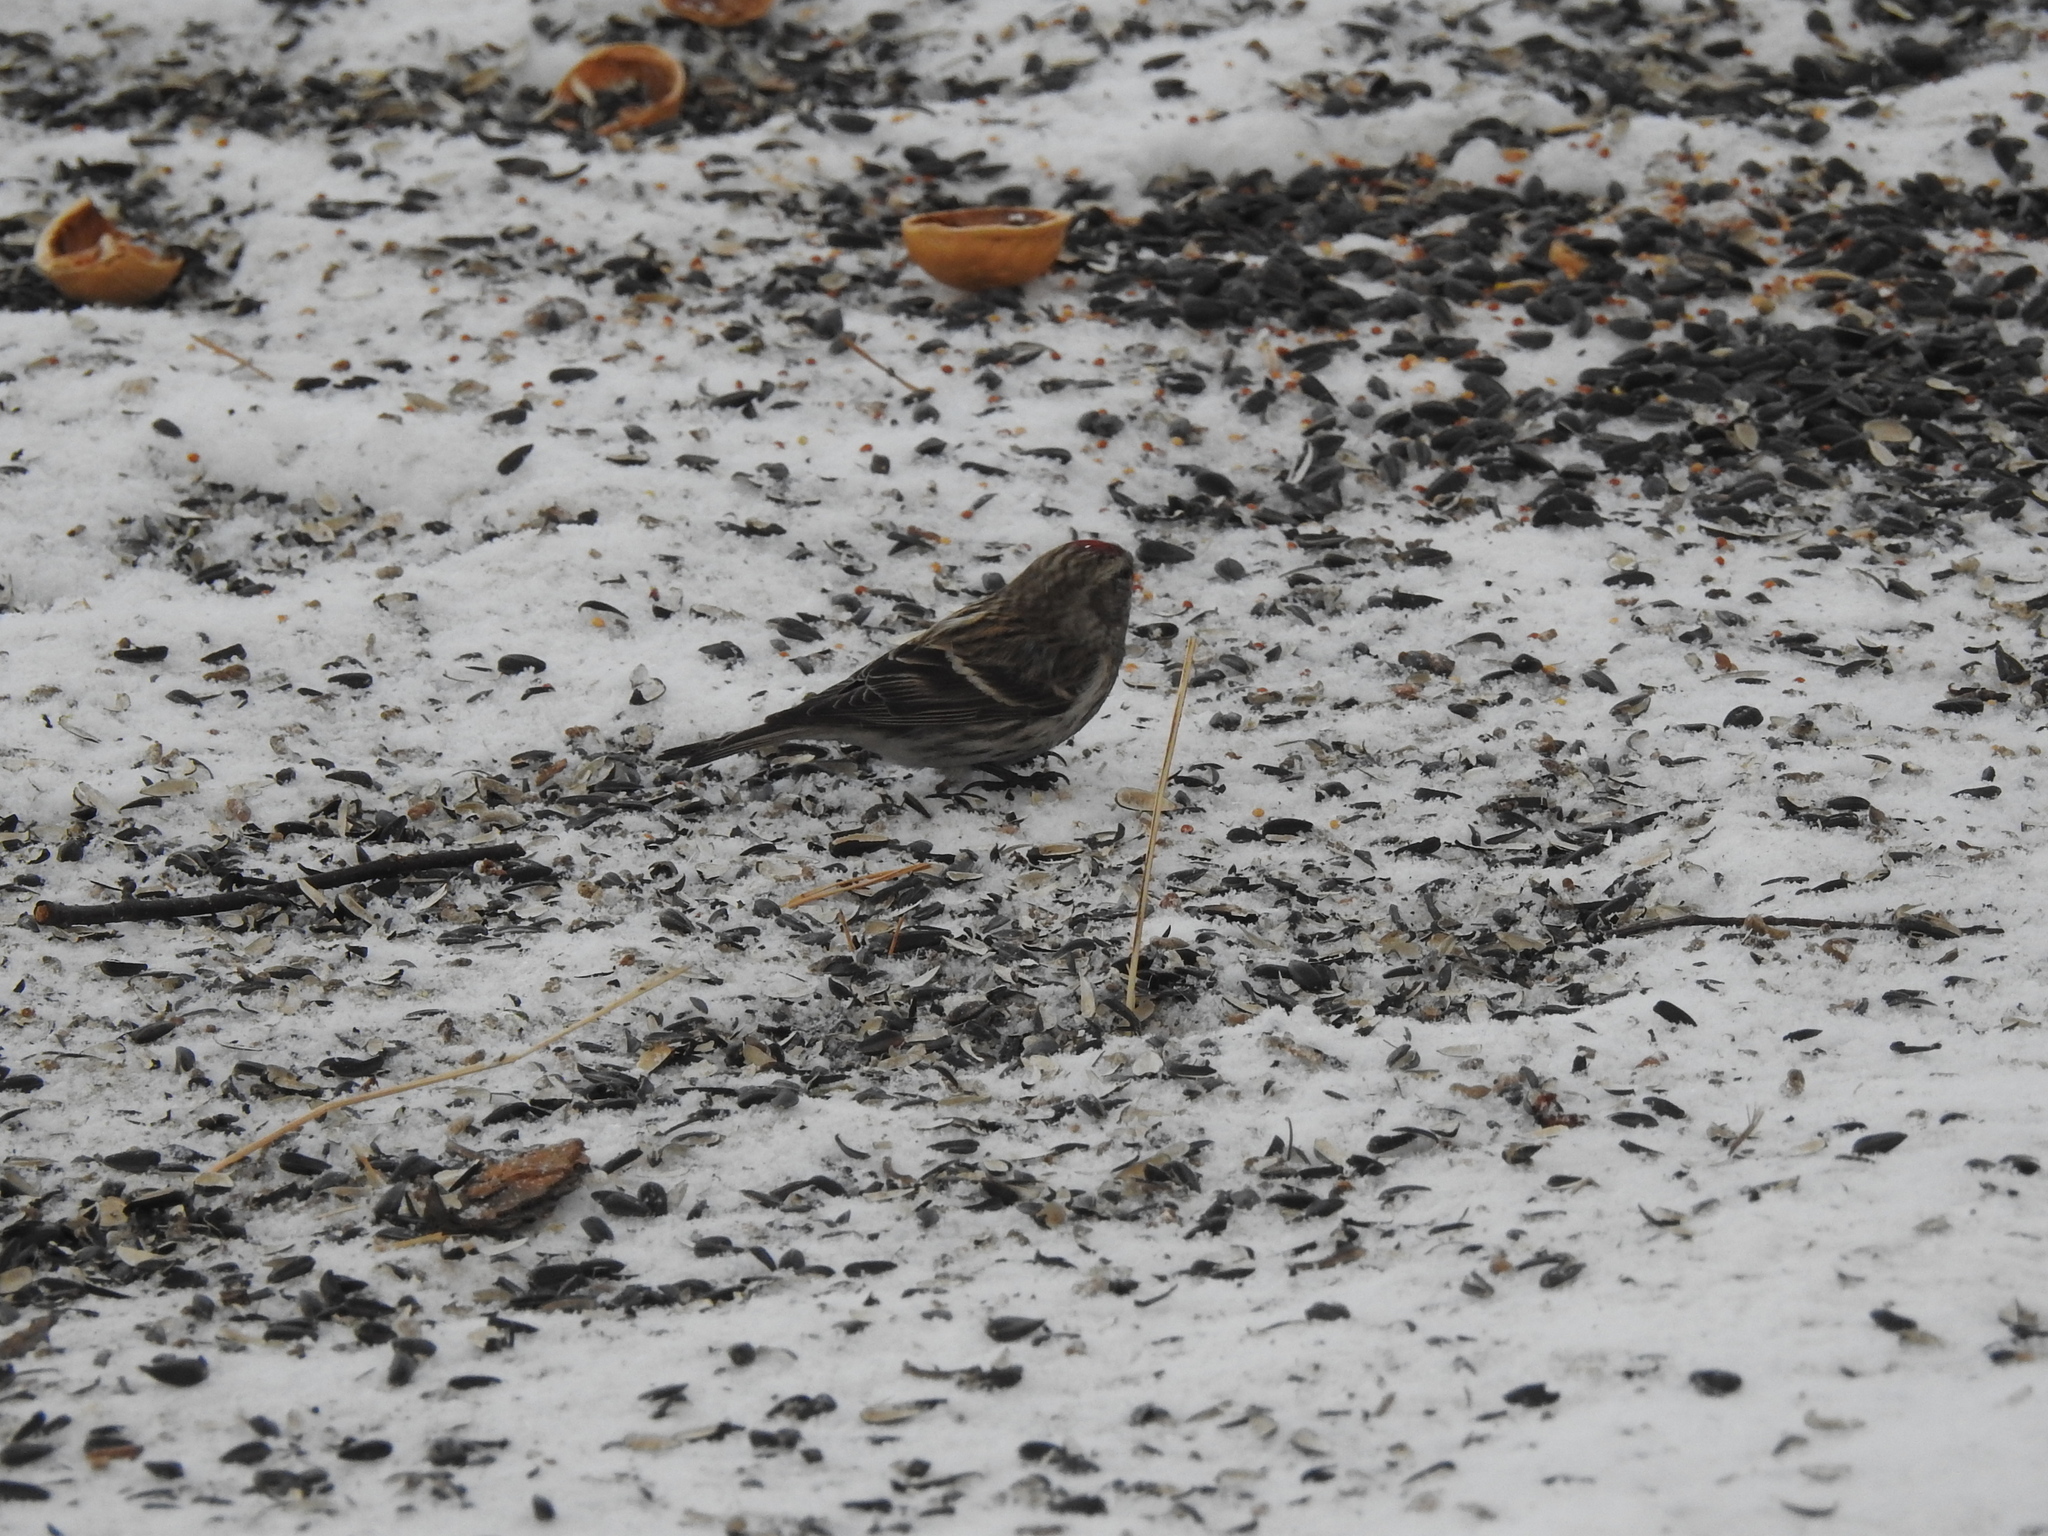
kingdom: Animalia
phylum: Chordata
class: Aves
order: Passeriformes
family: Fringillidae
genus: Acanthis
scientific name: Acanthis flammea
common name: Common redpoll
